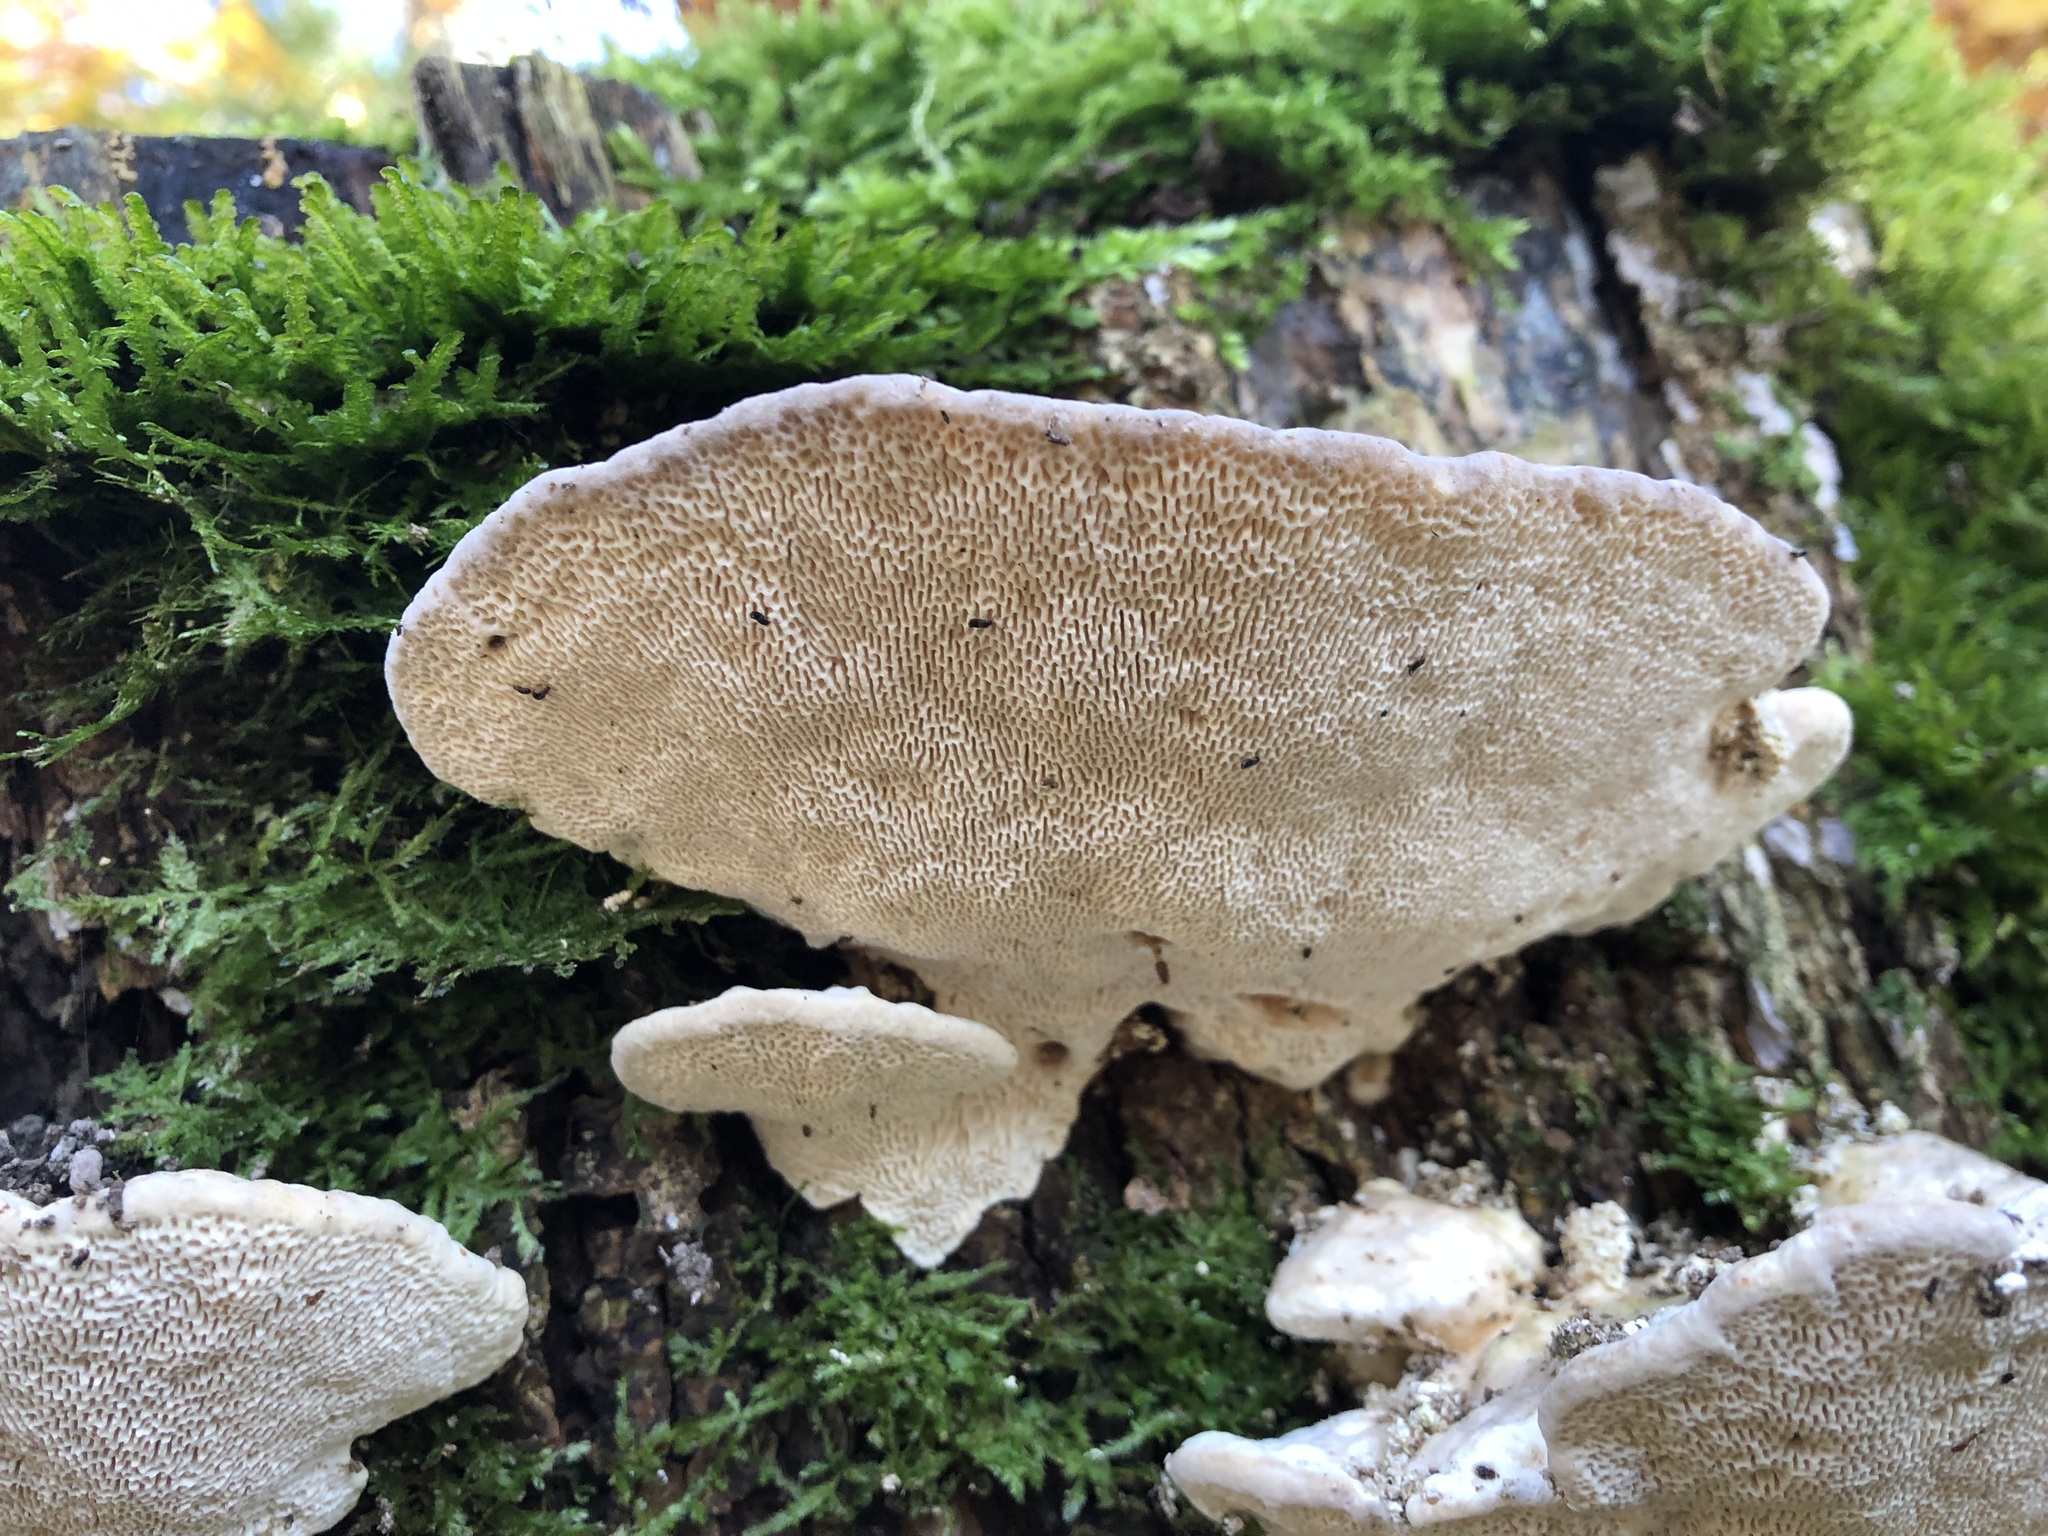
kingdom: Fungi
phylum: Basidiomycota
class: Agaricomycetes
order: Polyporales
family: Polyporaceae
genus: Trametes
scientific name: Trametes gibbosa
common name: Lumpy bracket
